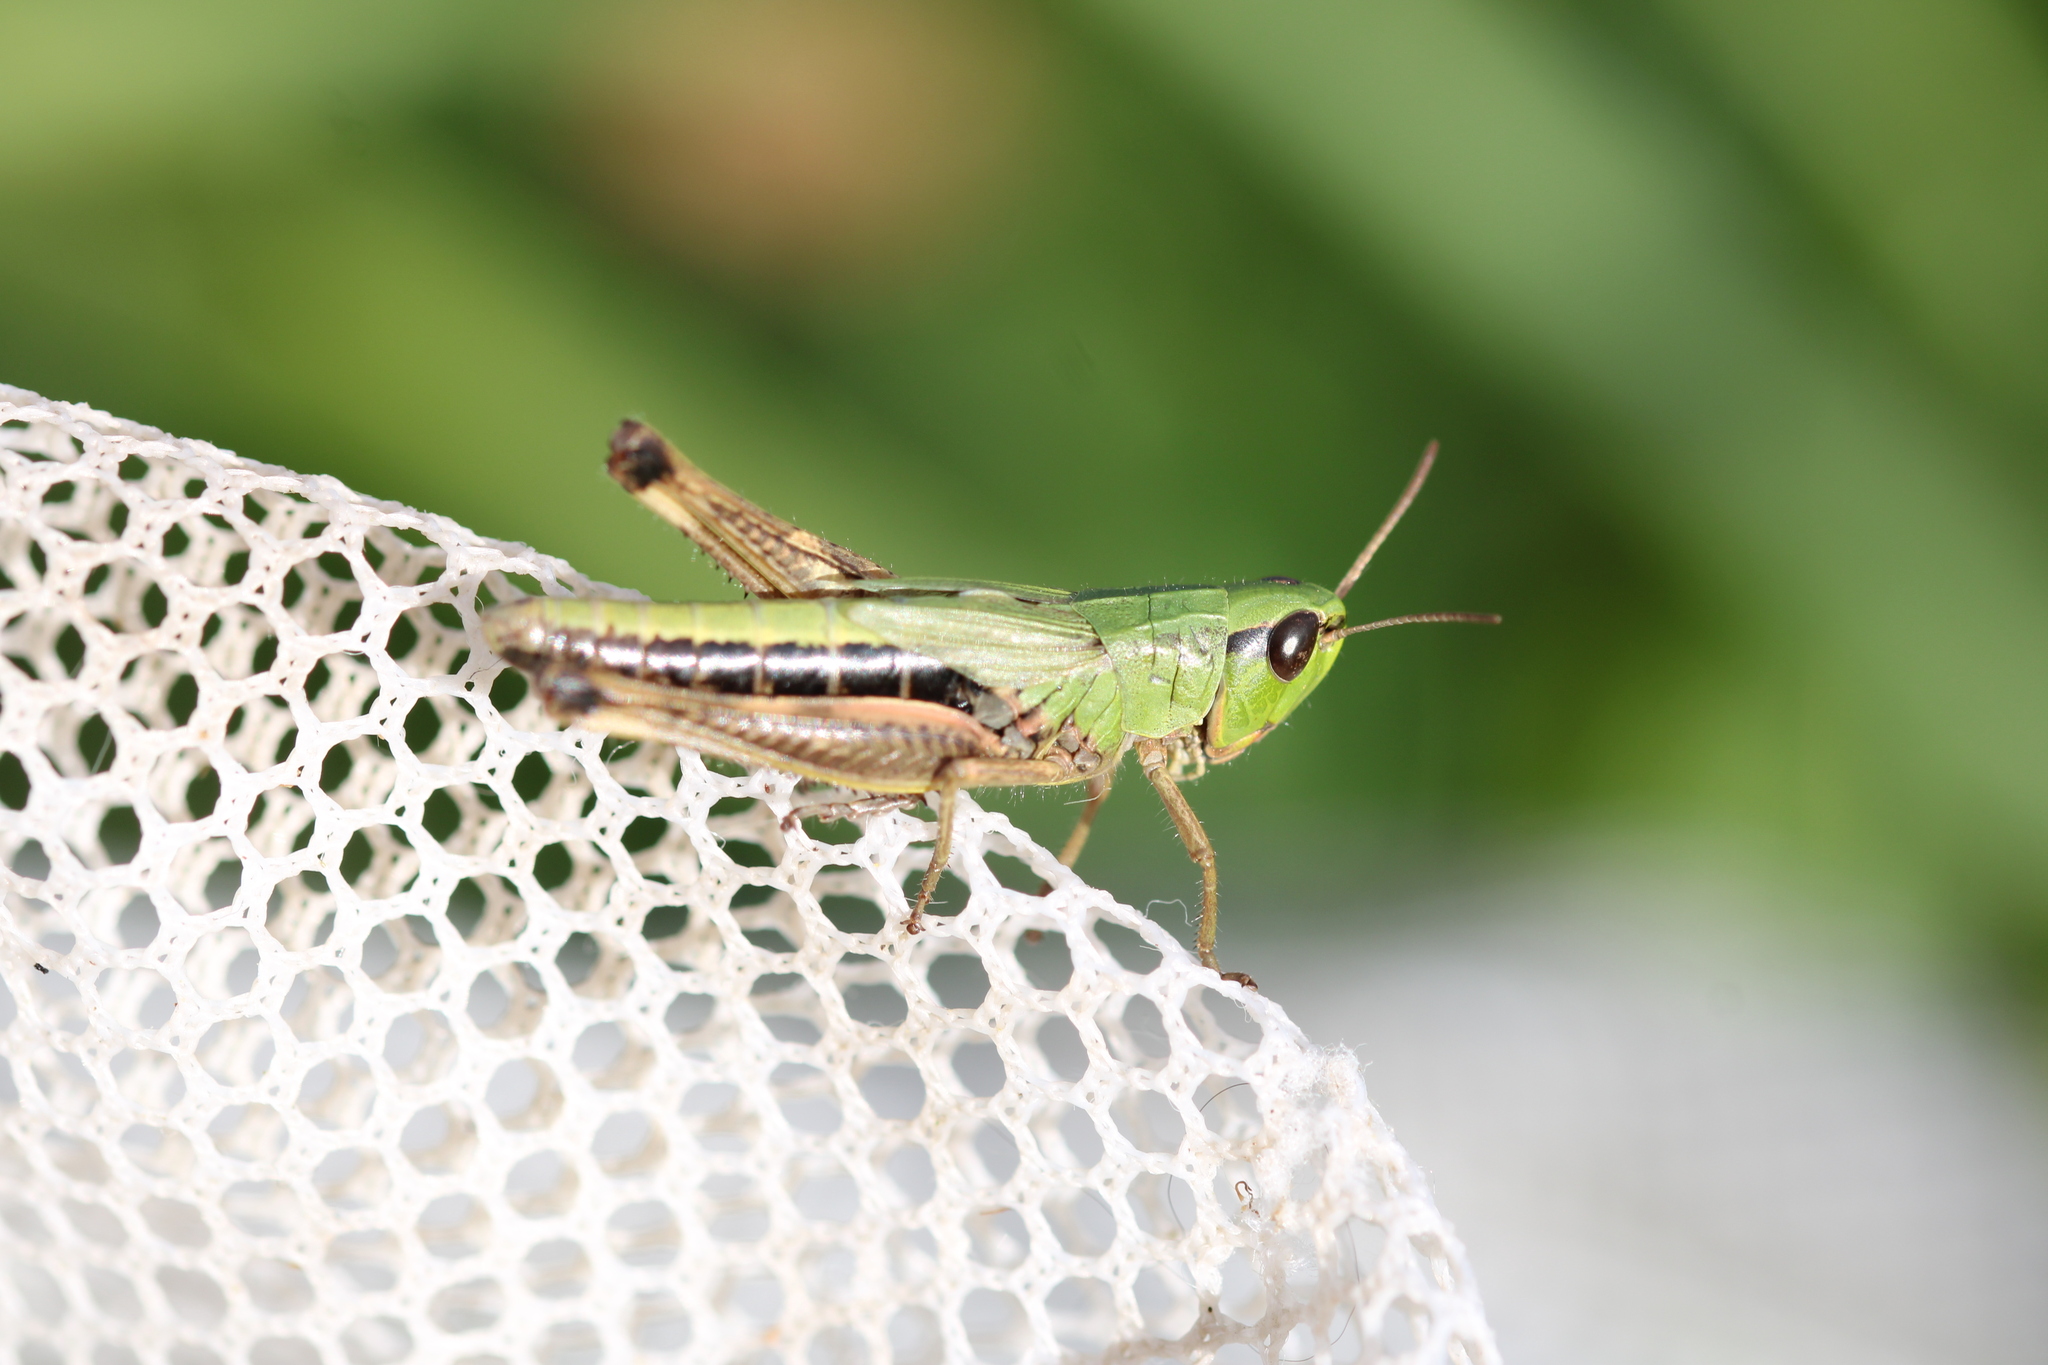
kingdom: Animalia
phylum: Arthropoda
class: Insecta
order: Orthoptera
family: Acrididae
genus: Pseudochorthippus
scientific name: Pseudochorthippus parallelus
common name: Meadow grasshopper
